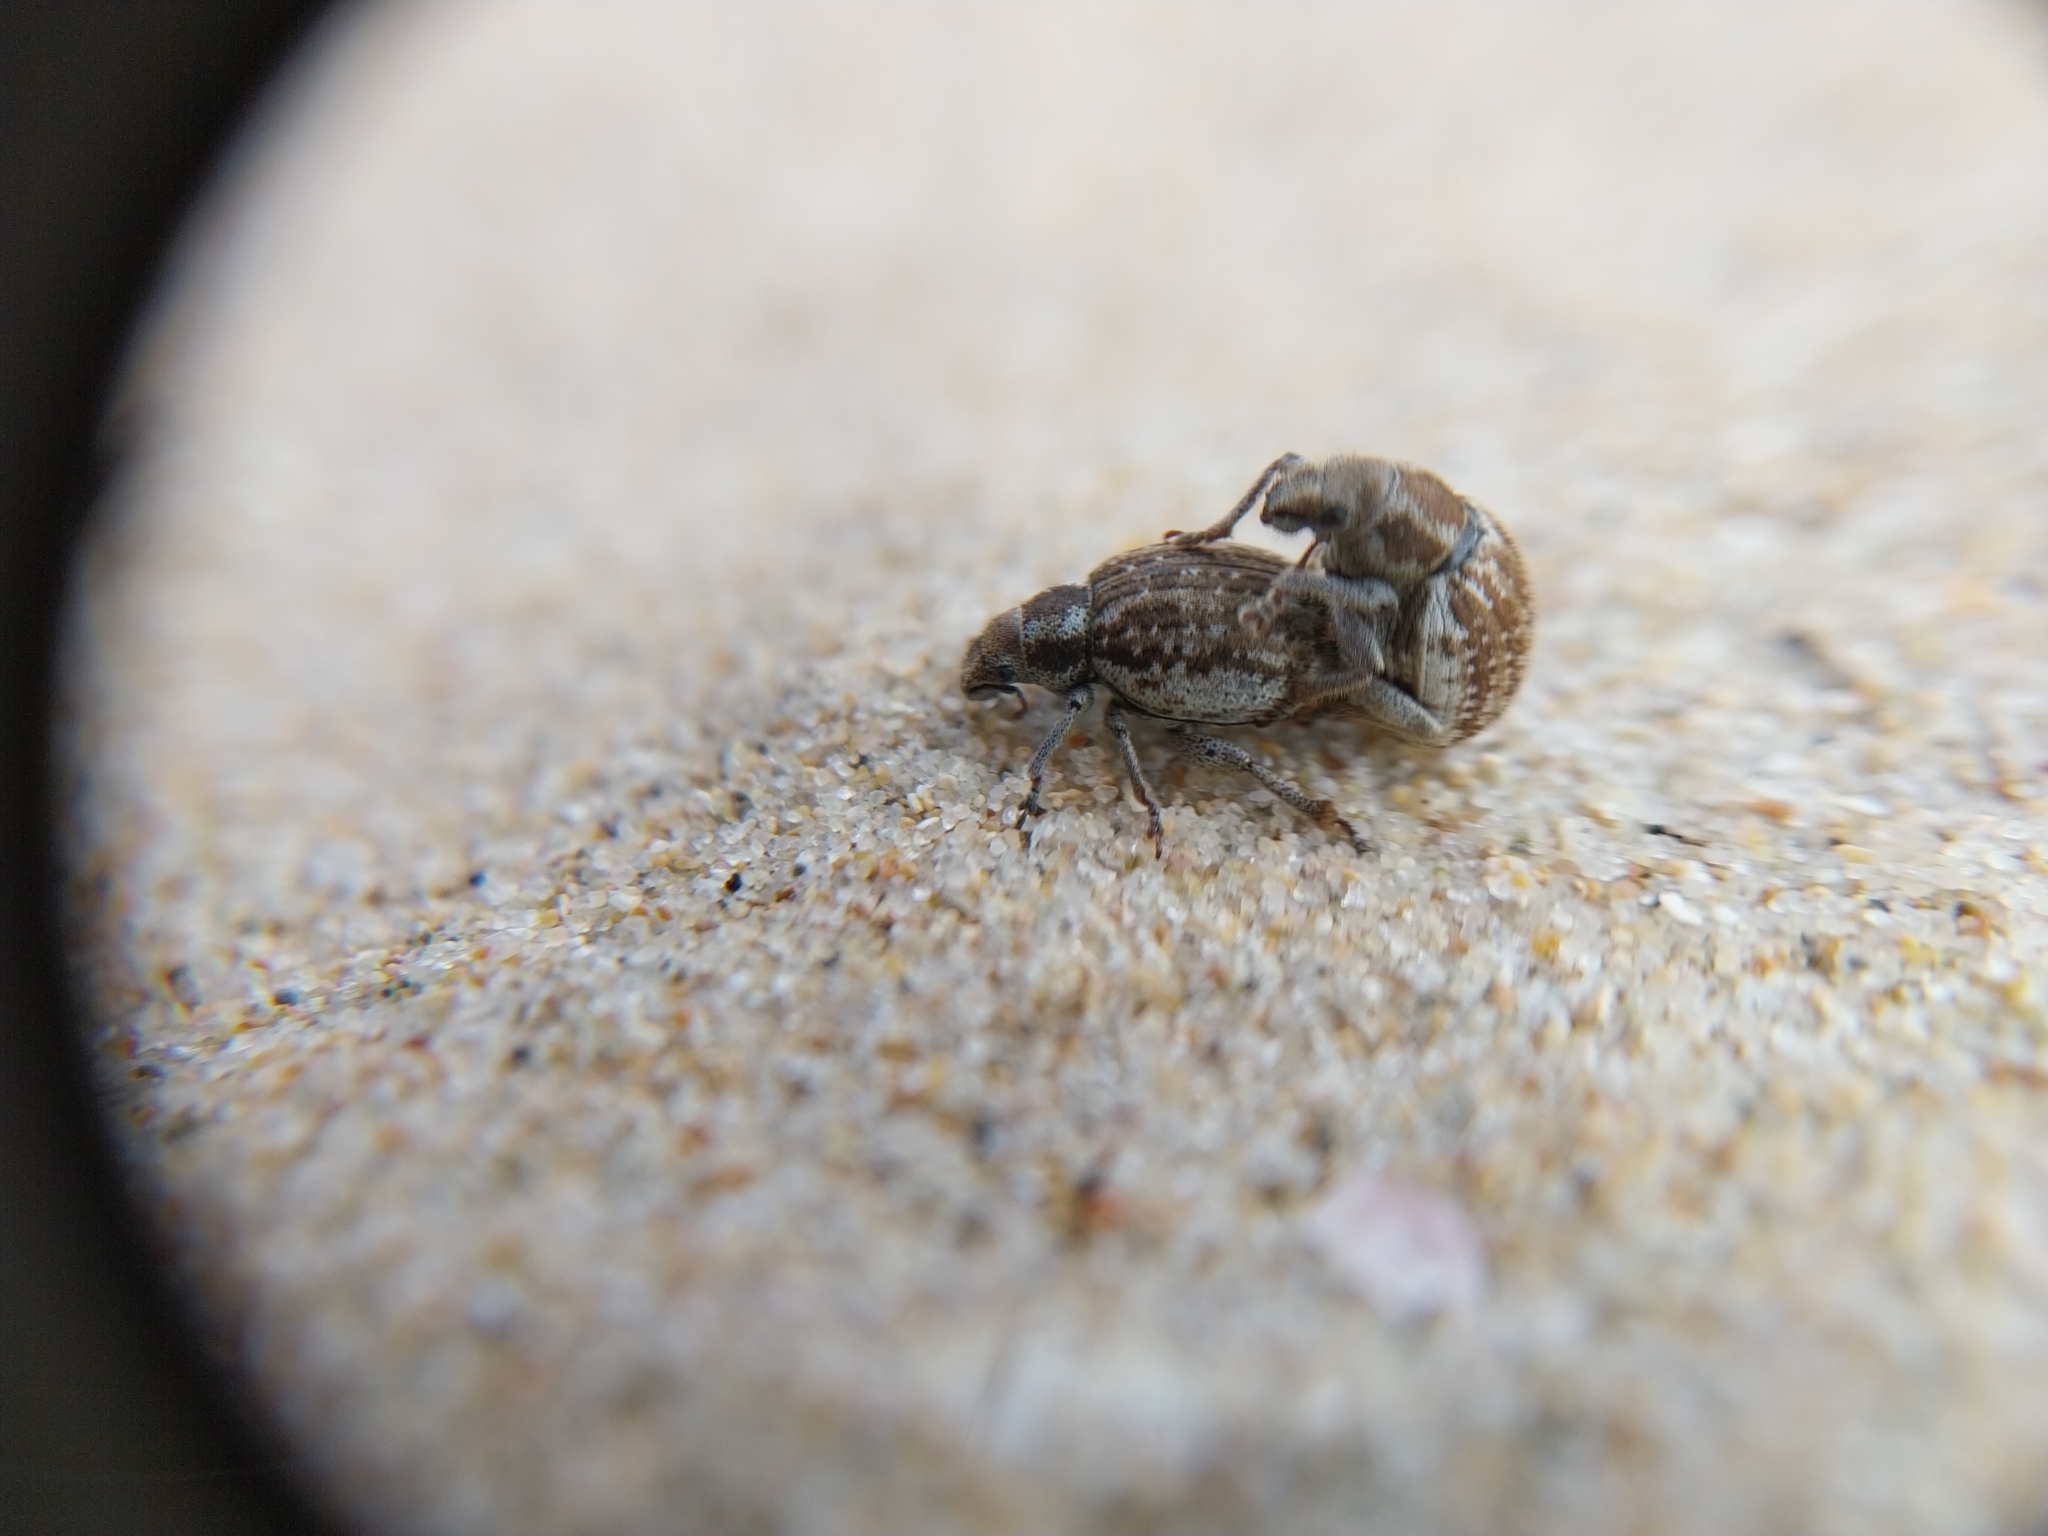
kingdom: Animalia
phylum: Arthropoda
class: Insecta
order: Coleoptera
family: Curculionidae
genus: Philopedon
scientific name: Philopedon plagiatum
